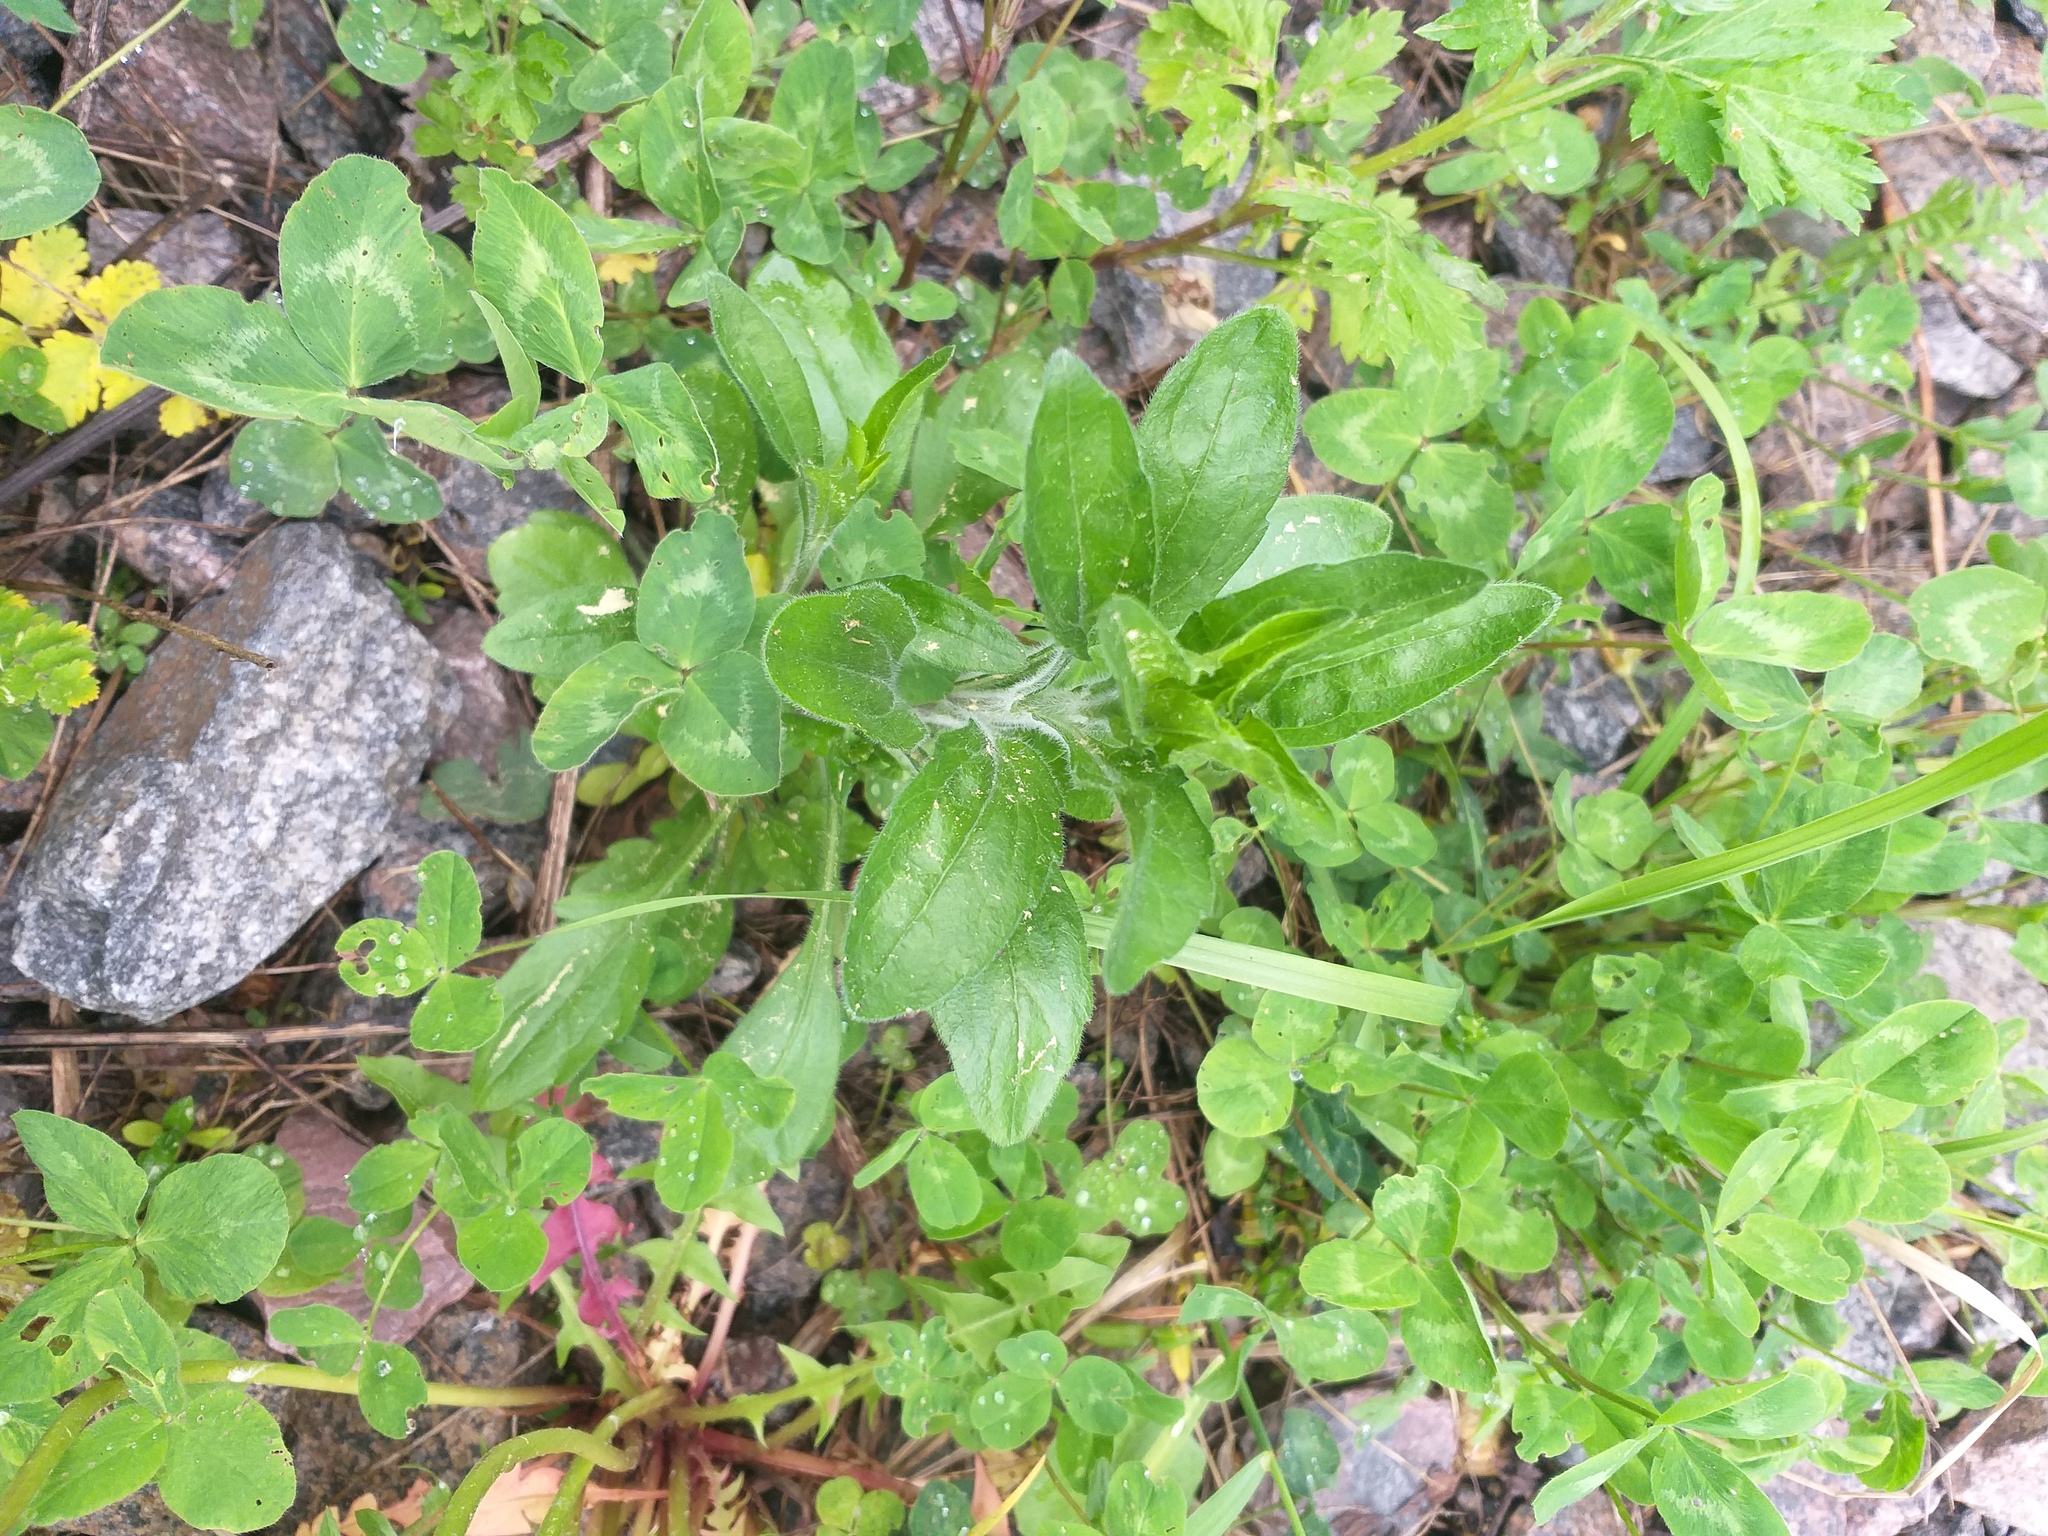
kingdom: Plantae
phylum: Tracheophyta
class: Magnoliopsida
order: Asterales
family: Asteraceae
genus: Erigeron
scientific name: Erigeron annuus
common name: Tall fleabane
